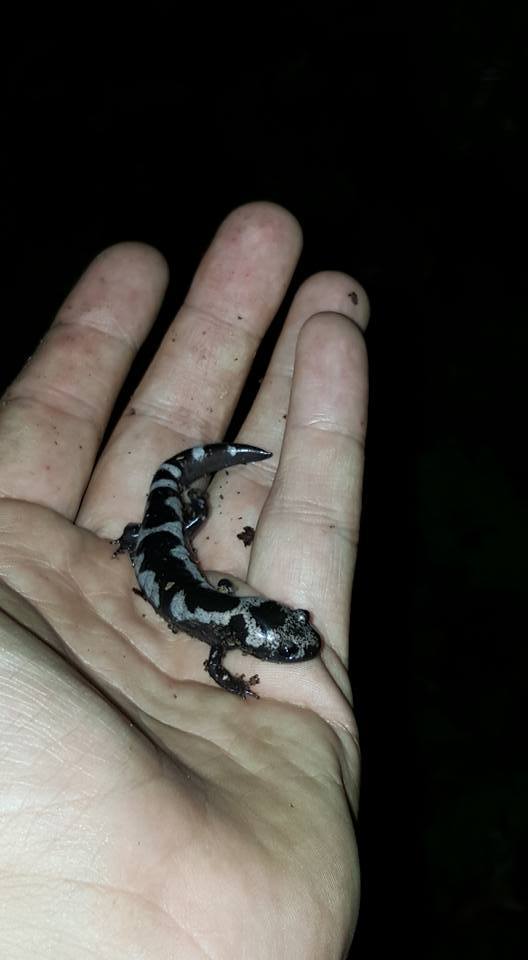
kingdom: Animalia
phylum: Chordata
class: Amphibia
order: Caudata
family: Ambystomatidae
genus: Ambystoma
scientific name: Ambystoma opacum
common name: Marbled salamander
